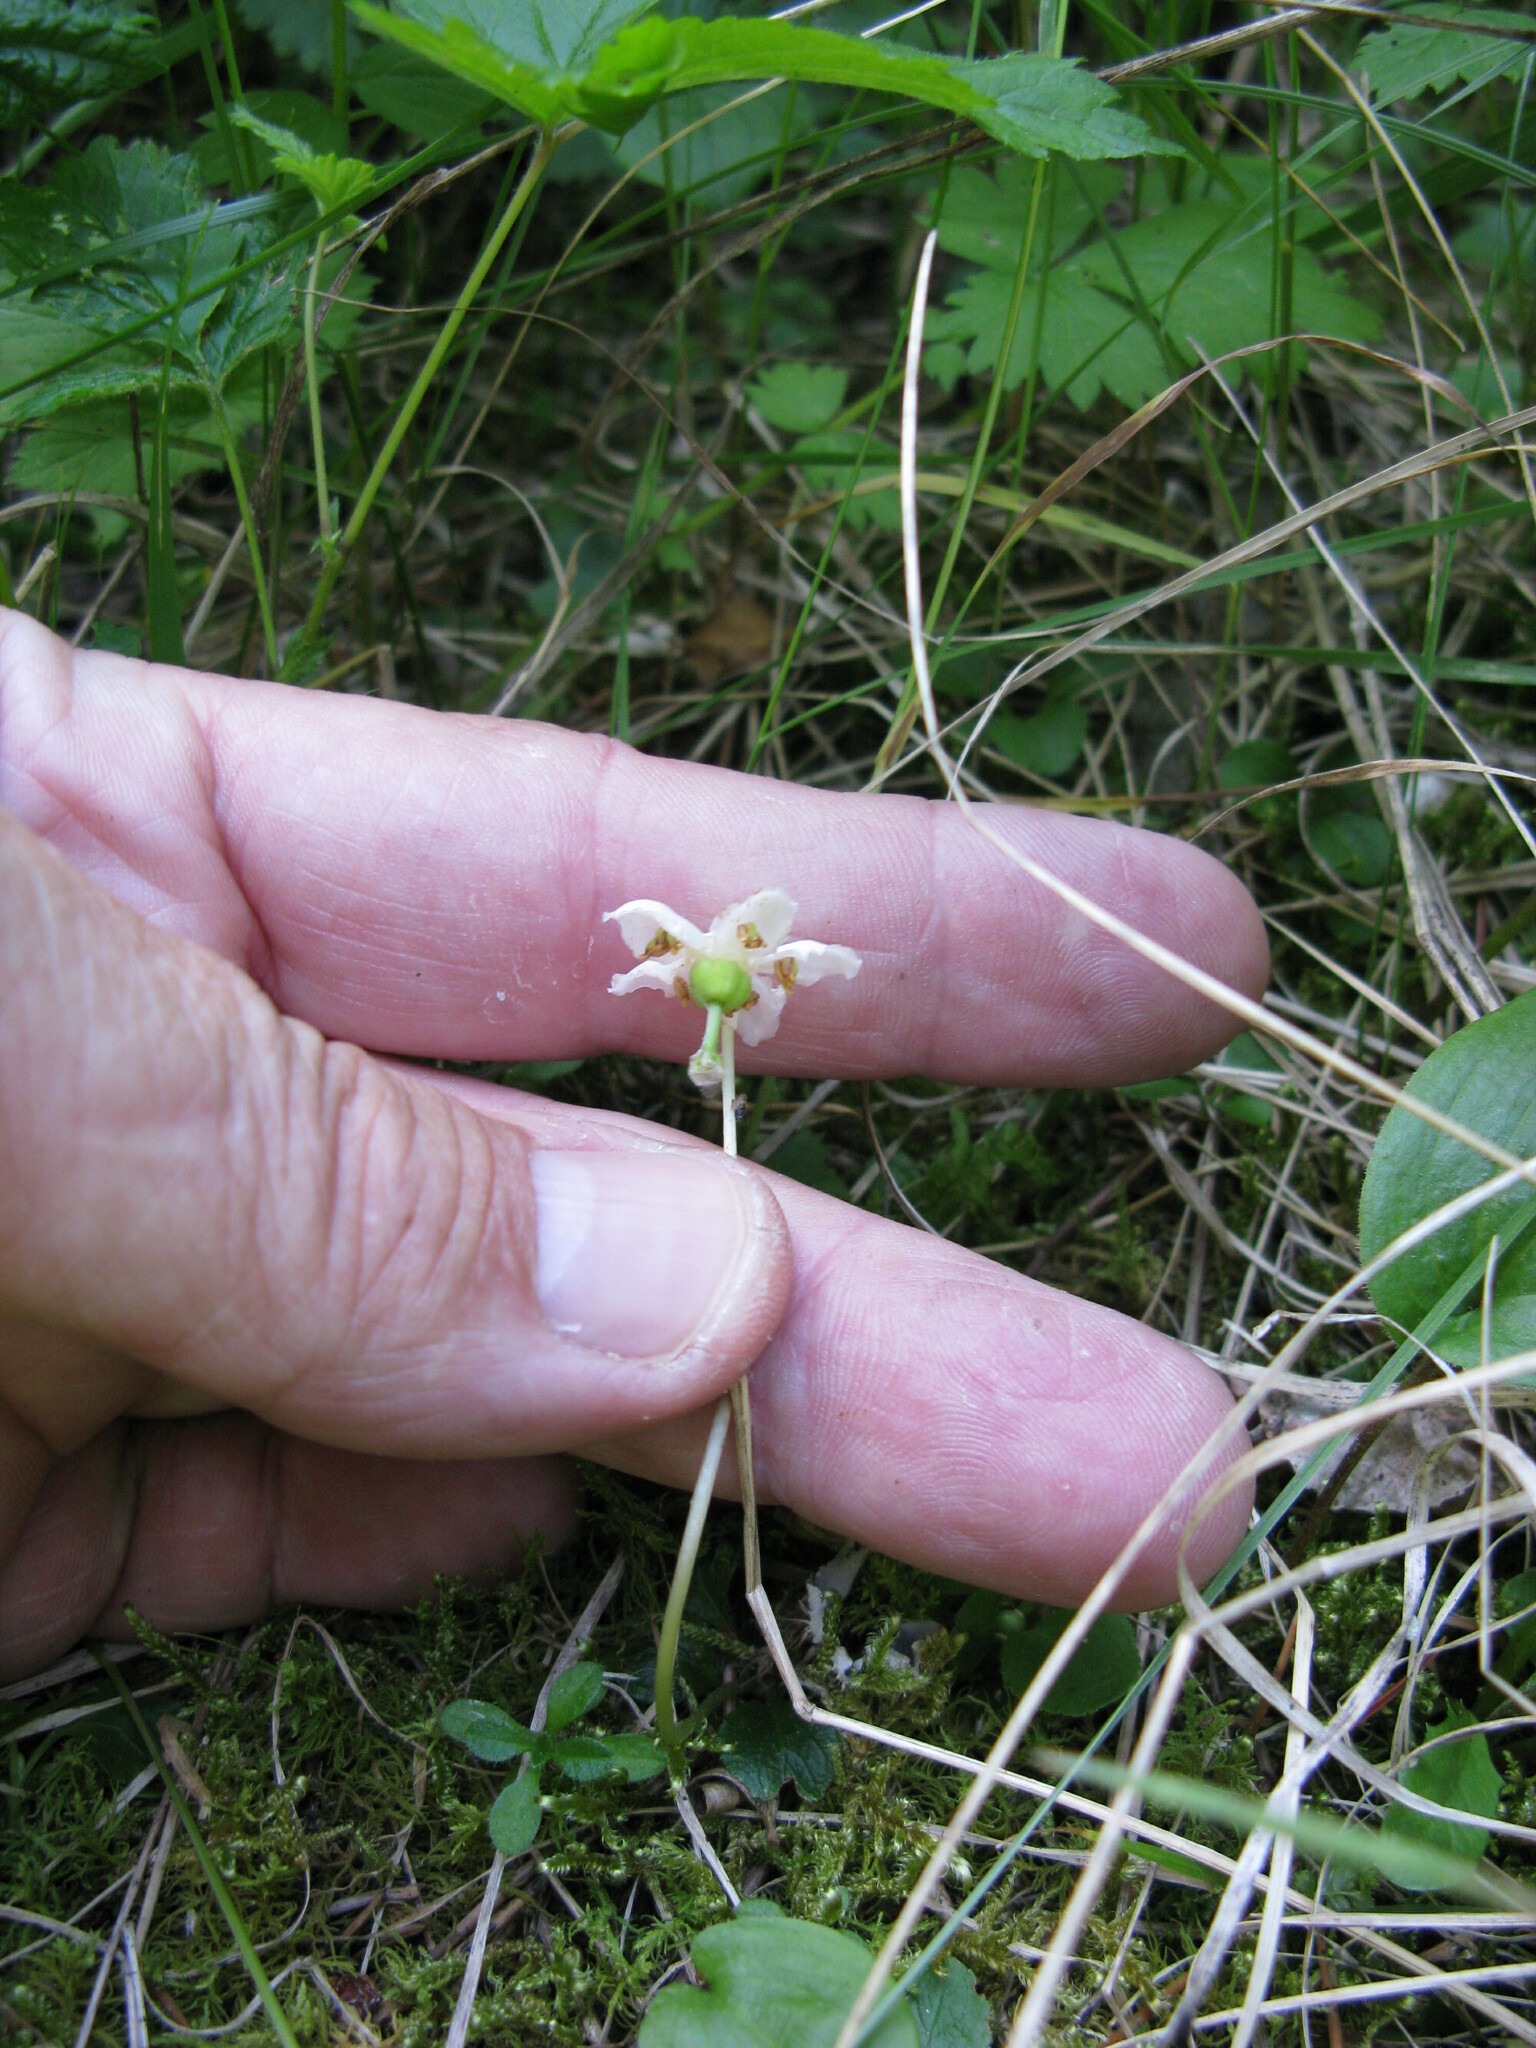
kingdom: Plantae
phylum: Tracheophyta
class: Magnoliopsida
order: Ericales
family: Ericaceae
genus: Moneses
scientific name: Moneses uniflora
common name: One-flowered wintergreen
